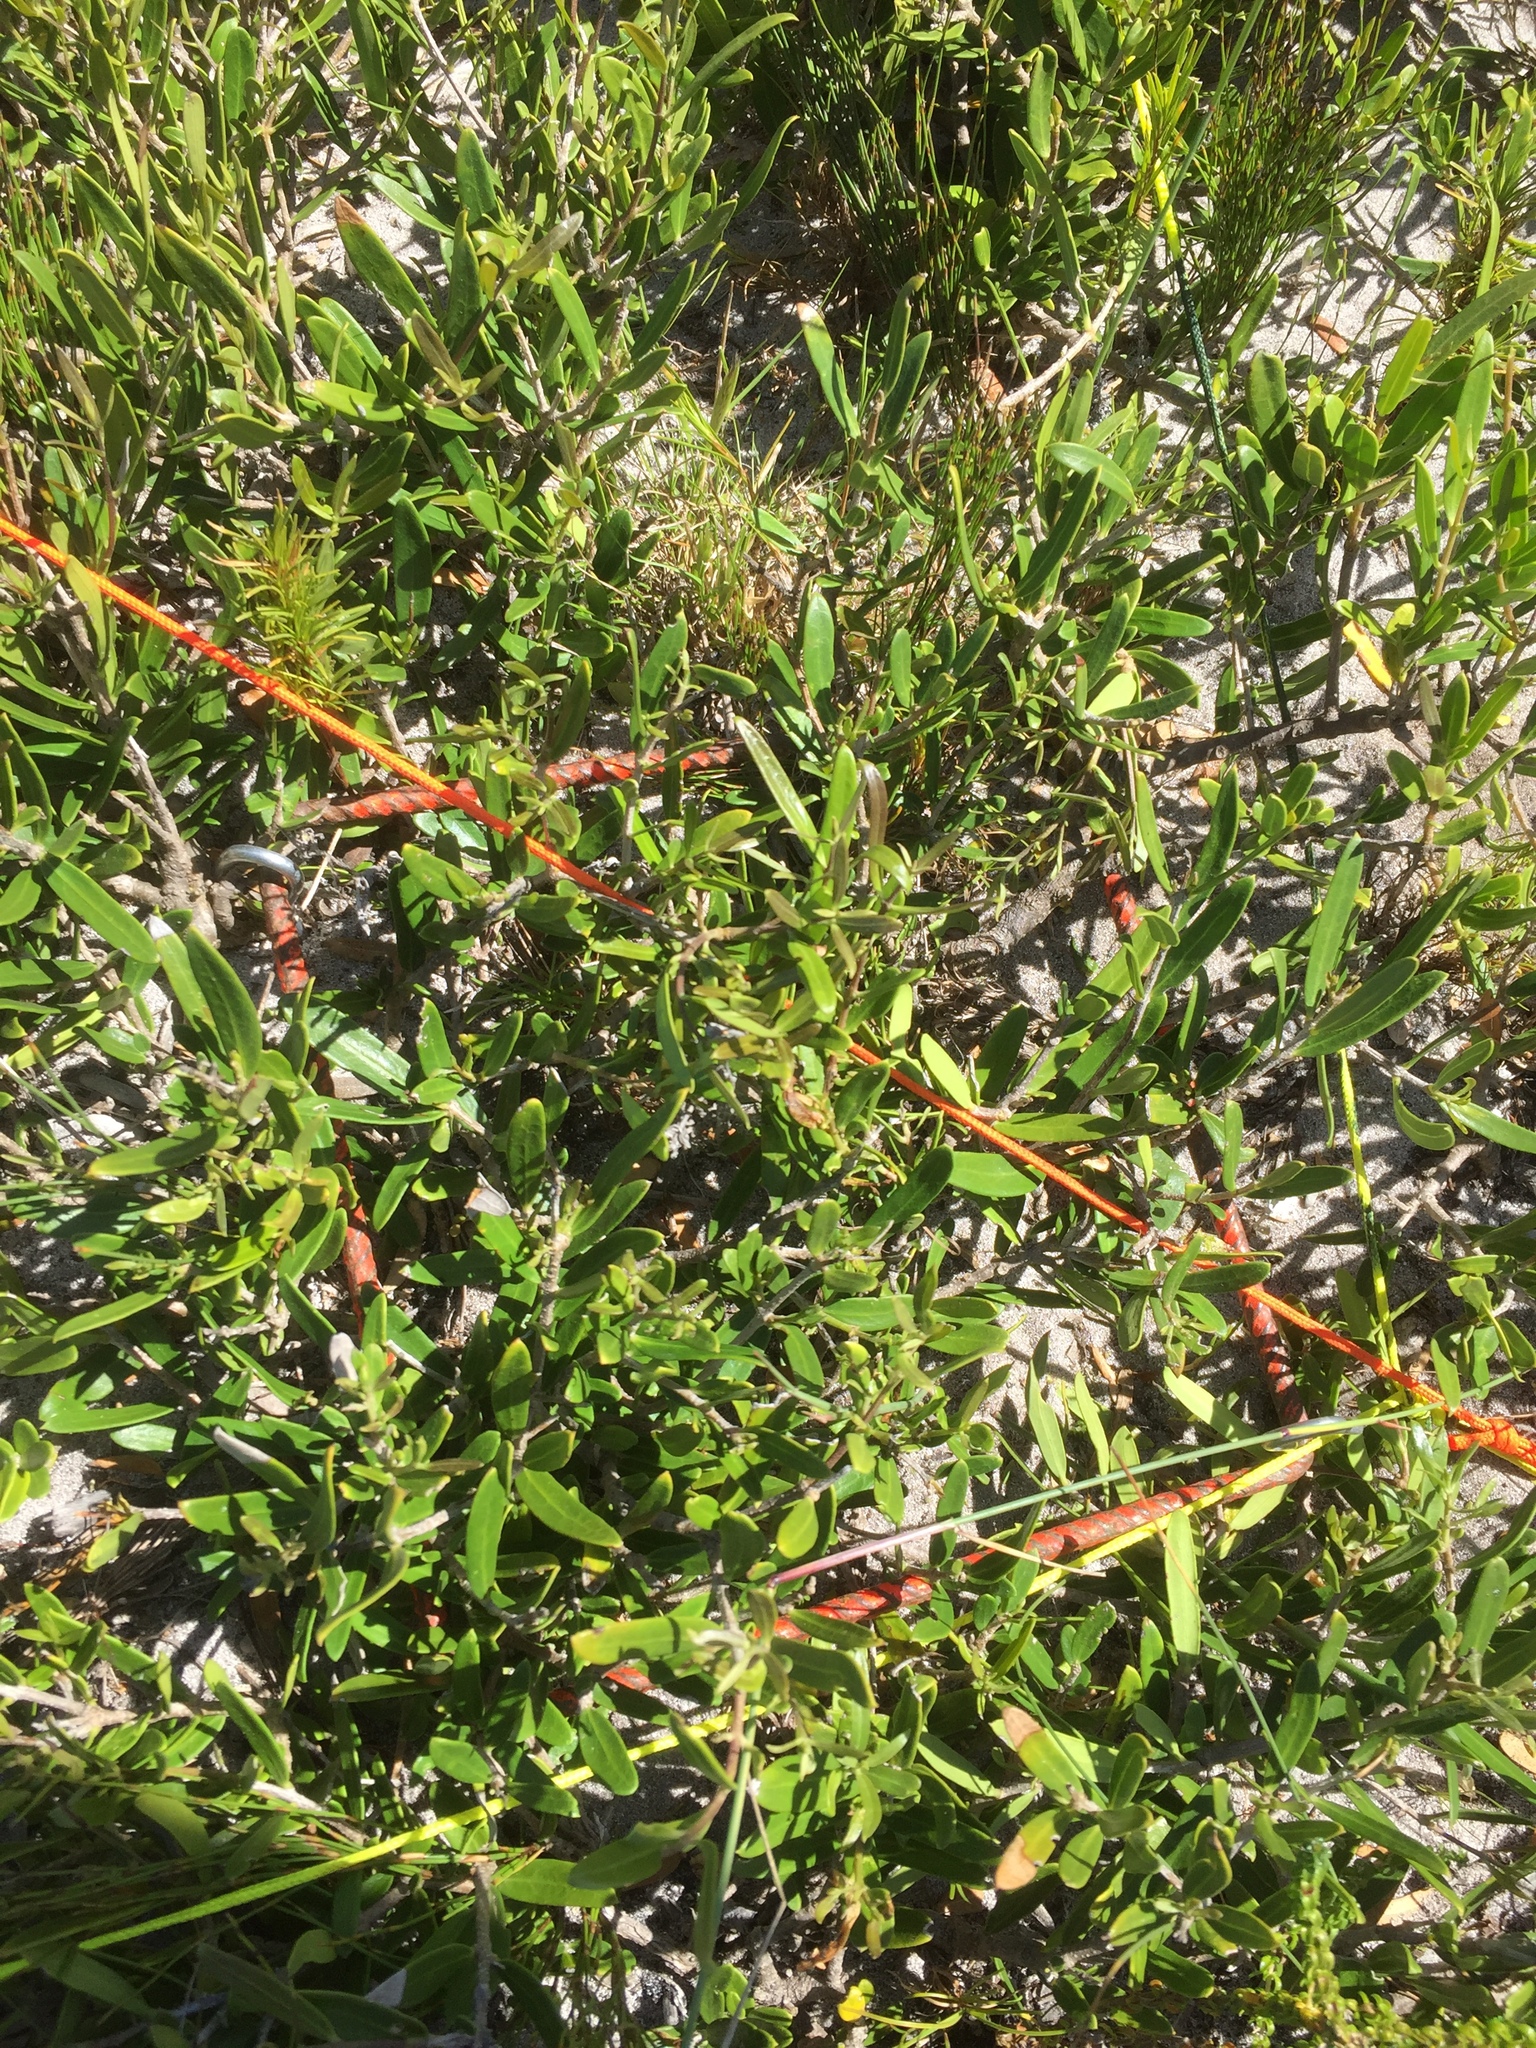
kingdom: Plantae
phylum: Tracheophyta
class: Magnoliopsida
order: Lamiales
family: Oleaceae
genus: Olea
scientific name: Olea exasperata
